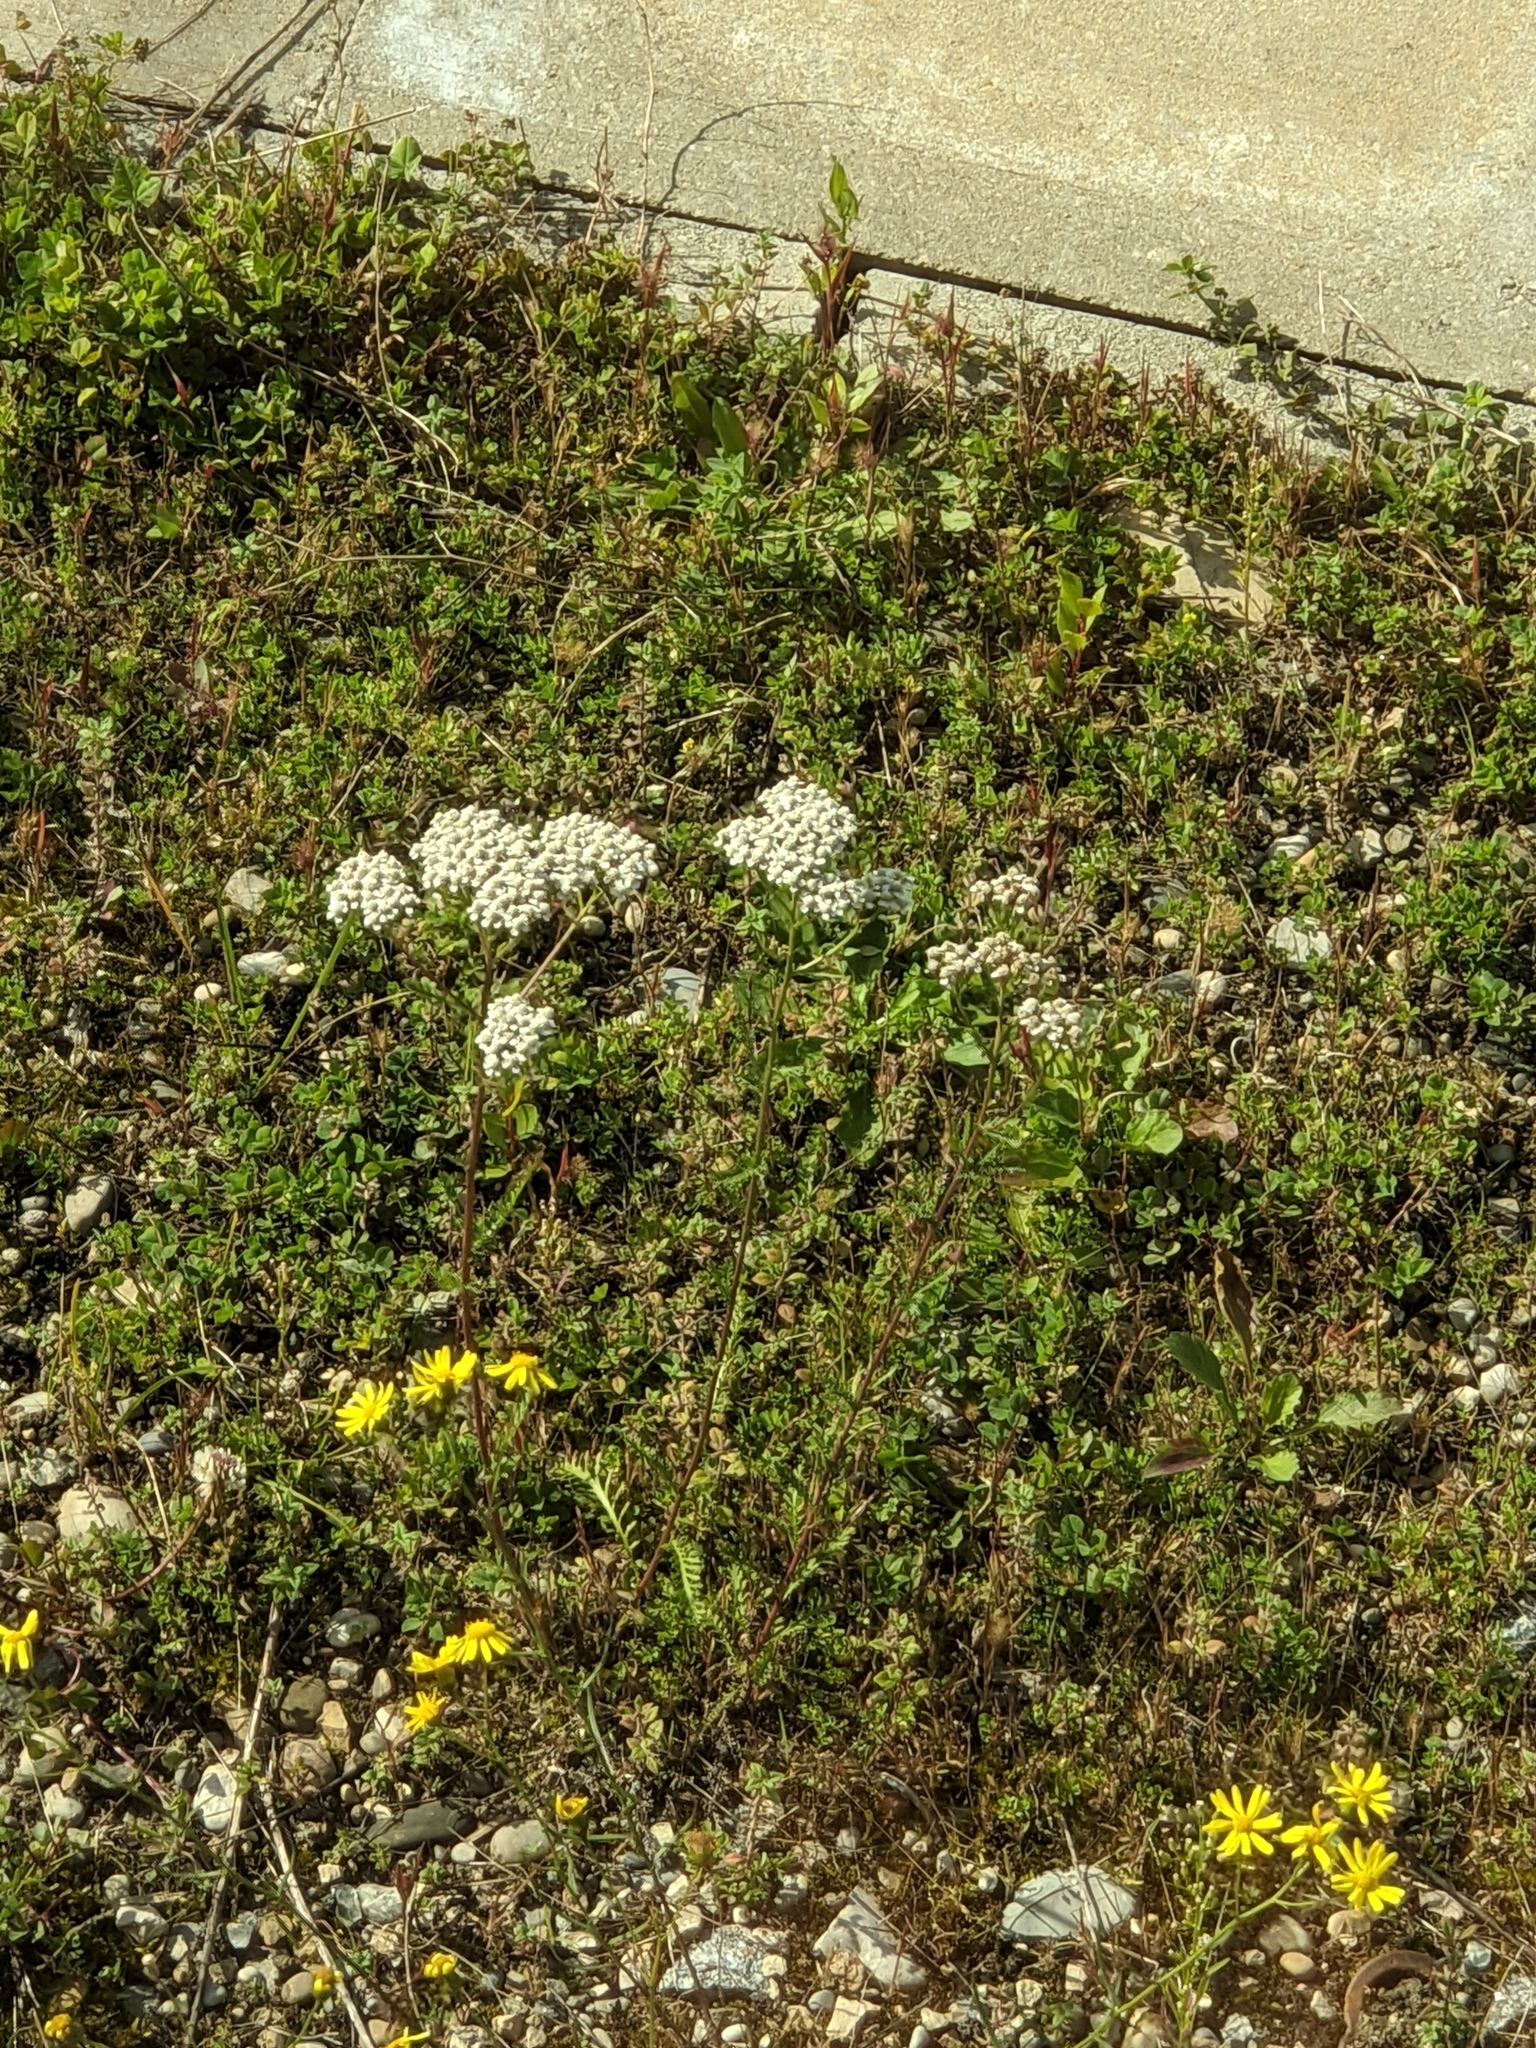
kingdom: Plantae
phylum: Tracheophyta
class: Magnoliopsida
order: Asterales
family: Asteraceae
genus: Achillea
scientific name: Achillea millefolium
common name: Yarrow
